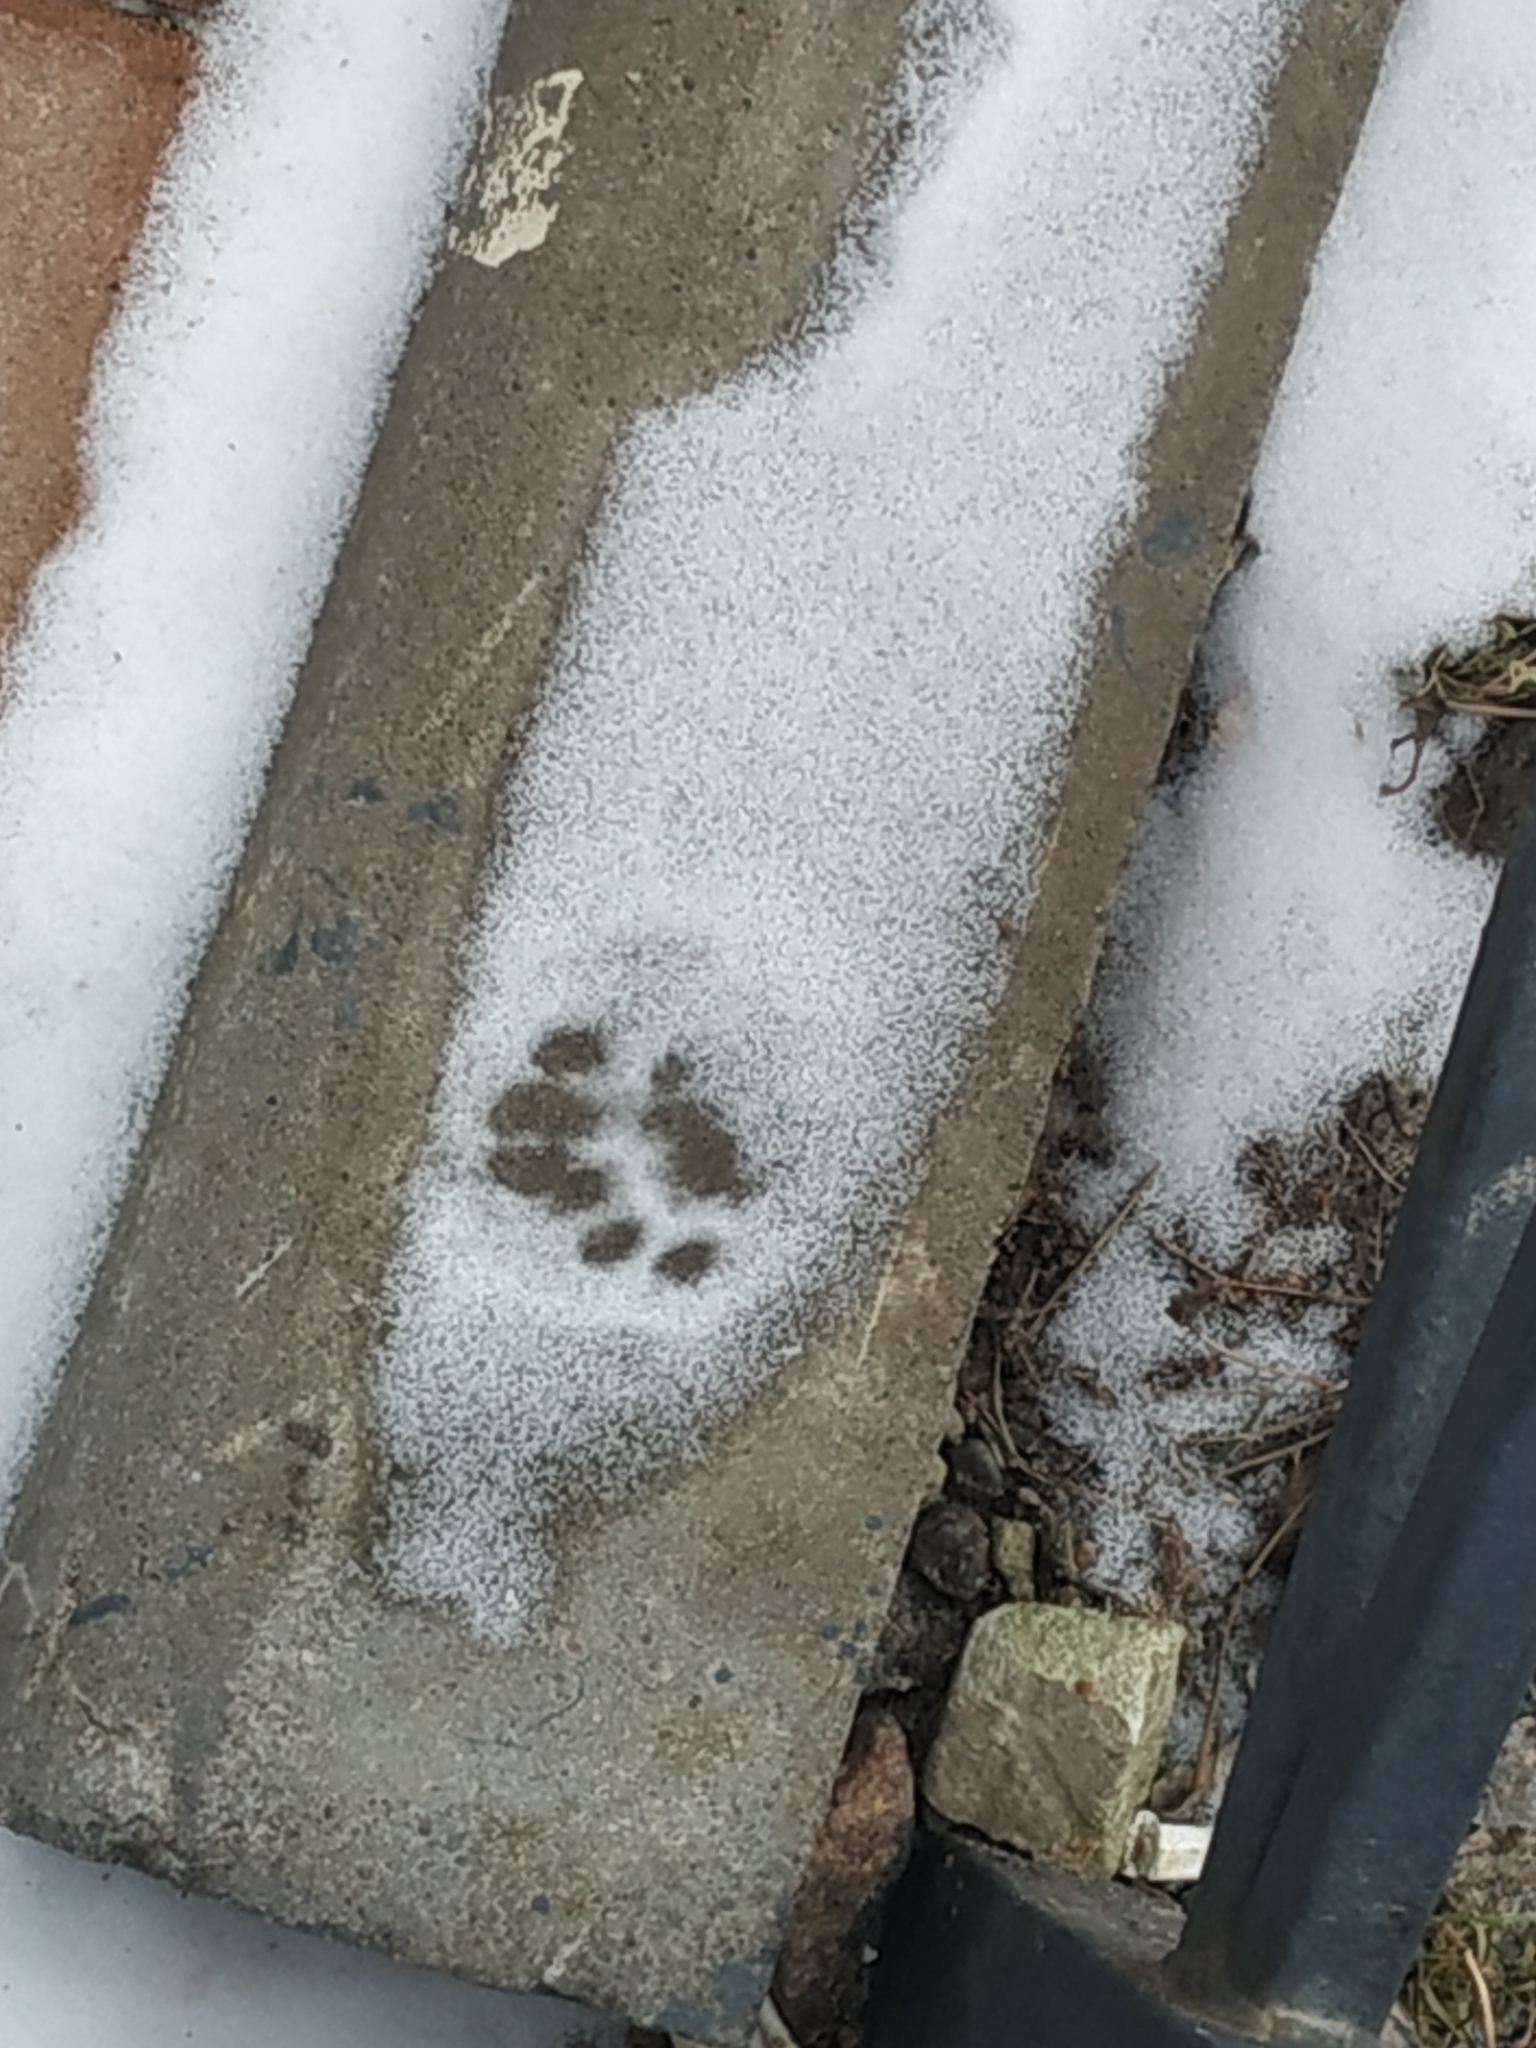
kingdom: Animalia
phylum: Chordata
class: Mammalia
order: Carnivora
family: Felidae
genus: Felis
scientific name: Felis catus
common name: Domestic cat
